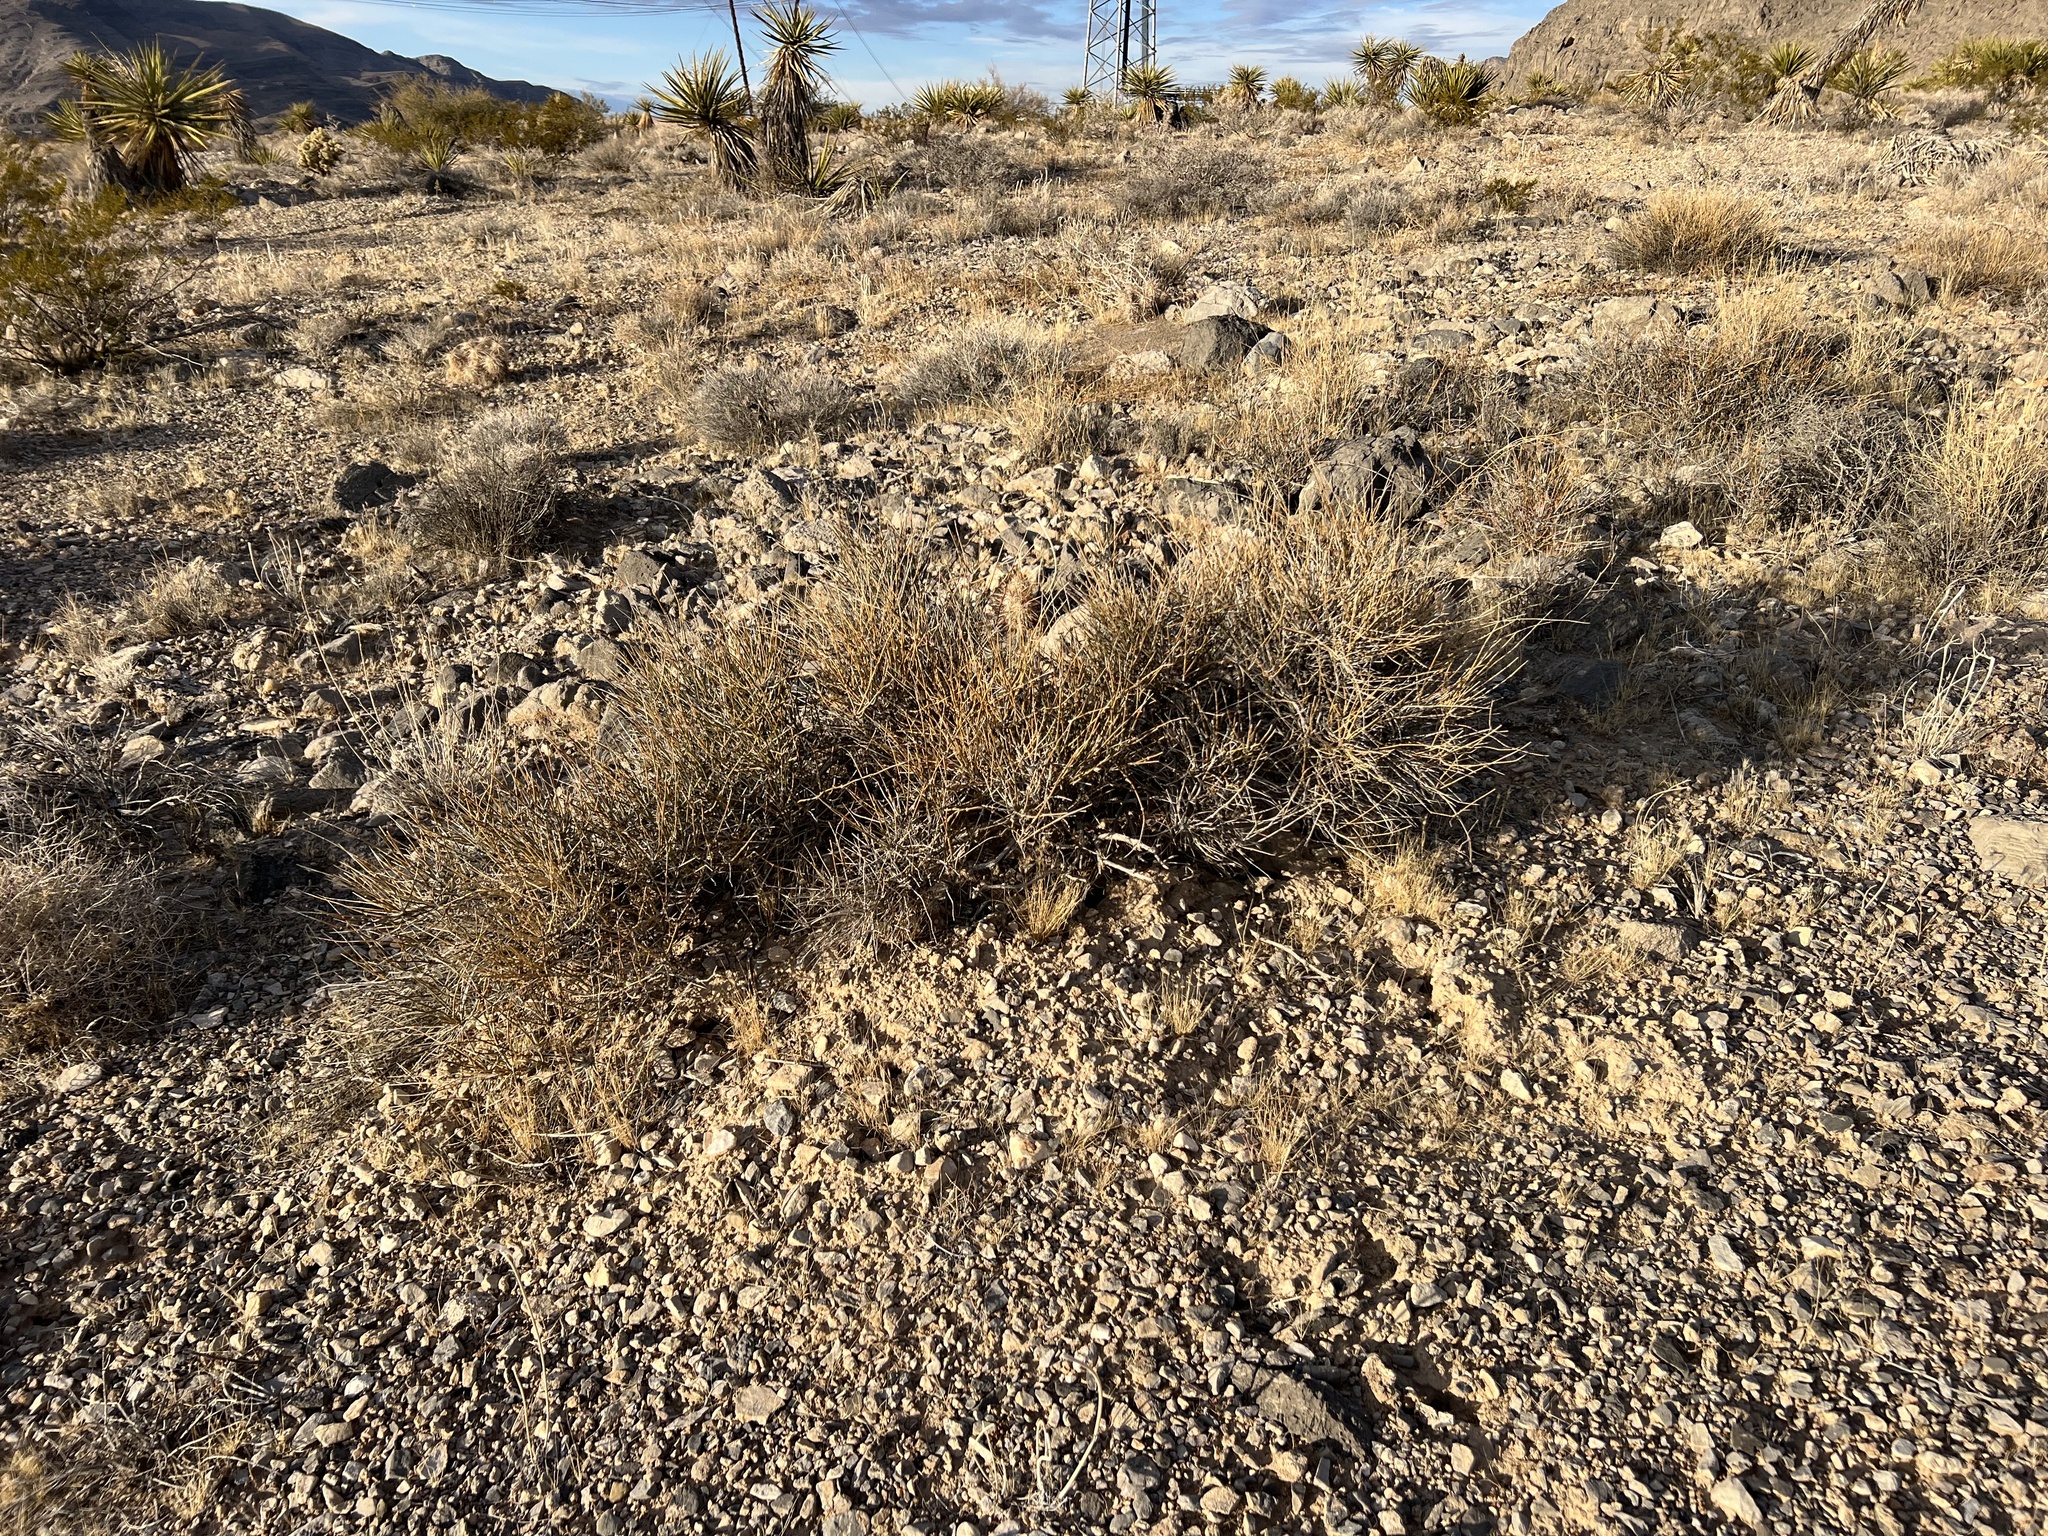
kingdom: Plantae
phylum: Tracheophyta
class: Gnetopsida
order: Ephedrales
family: Ephedraceae
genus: Ephedra
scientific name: Ephedra nevadensis
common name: Gray ephedra
